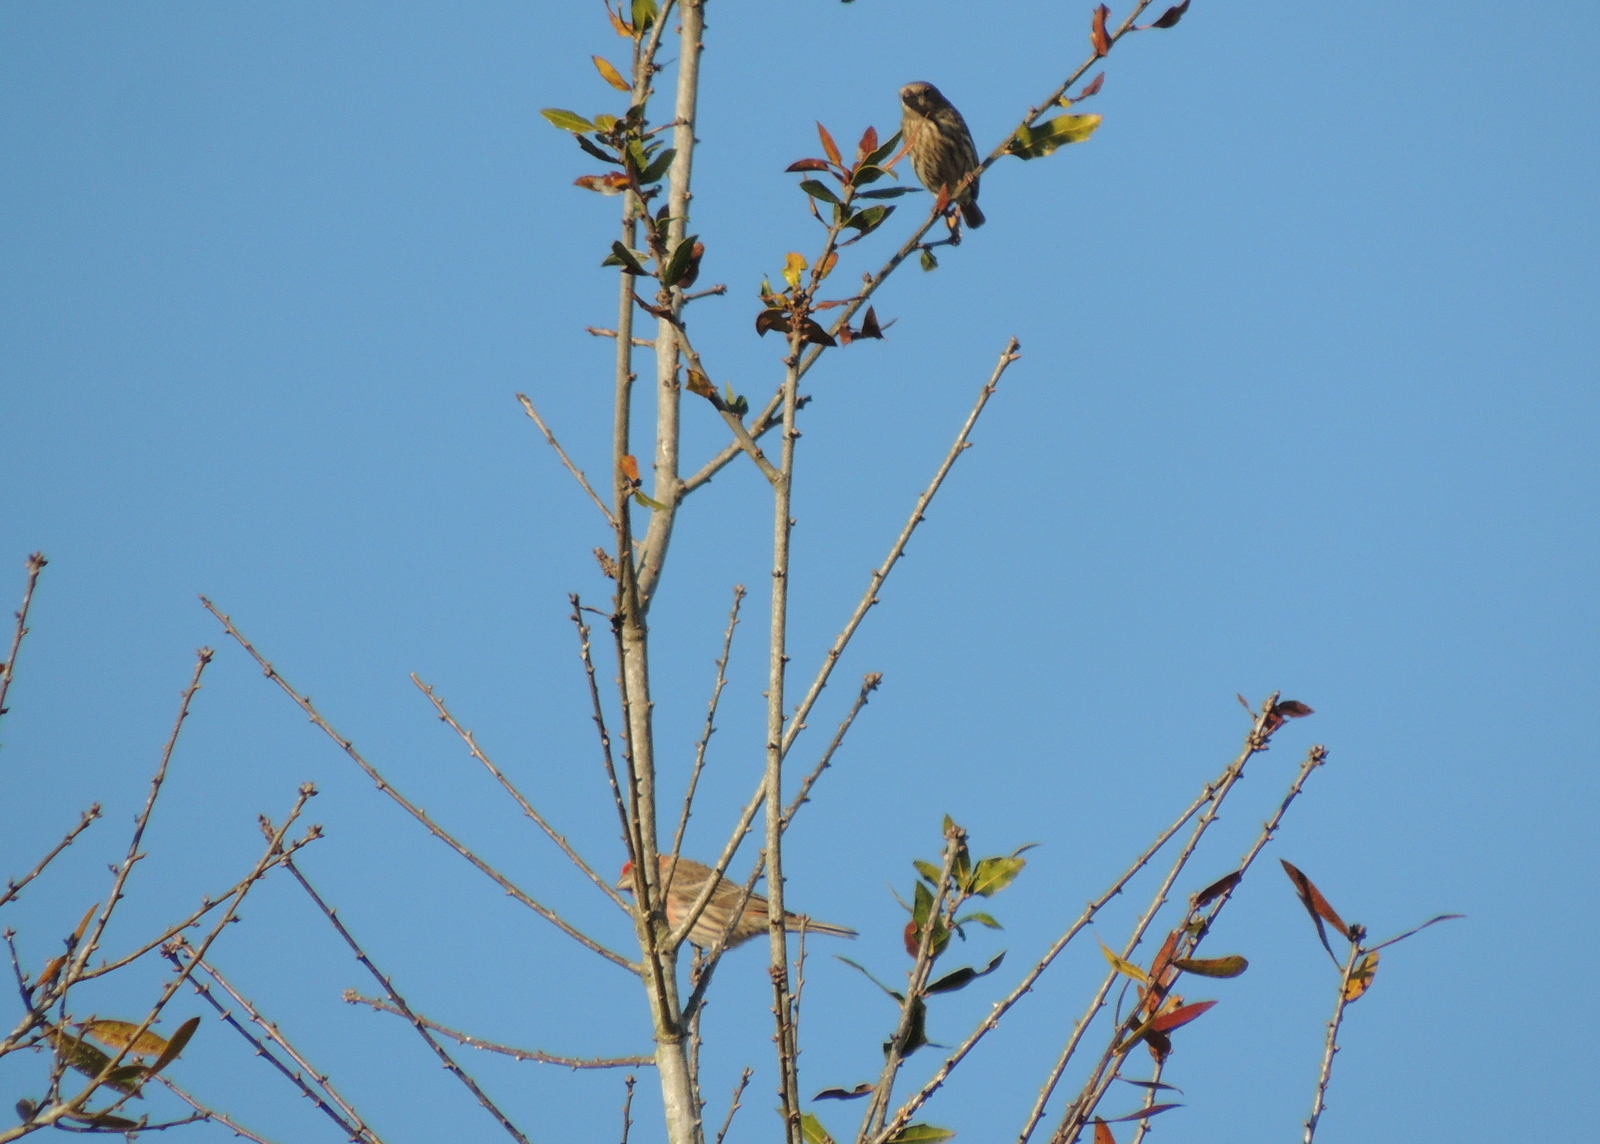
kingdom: Animalia
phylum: Chordata
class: Aves
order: Passeriformes
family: Fringillidae
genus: Haemorhous
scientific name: Haemorhous mexicanus
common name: House finch
